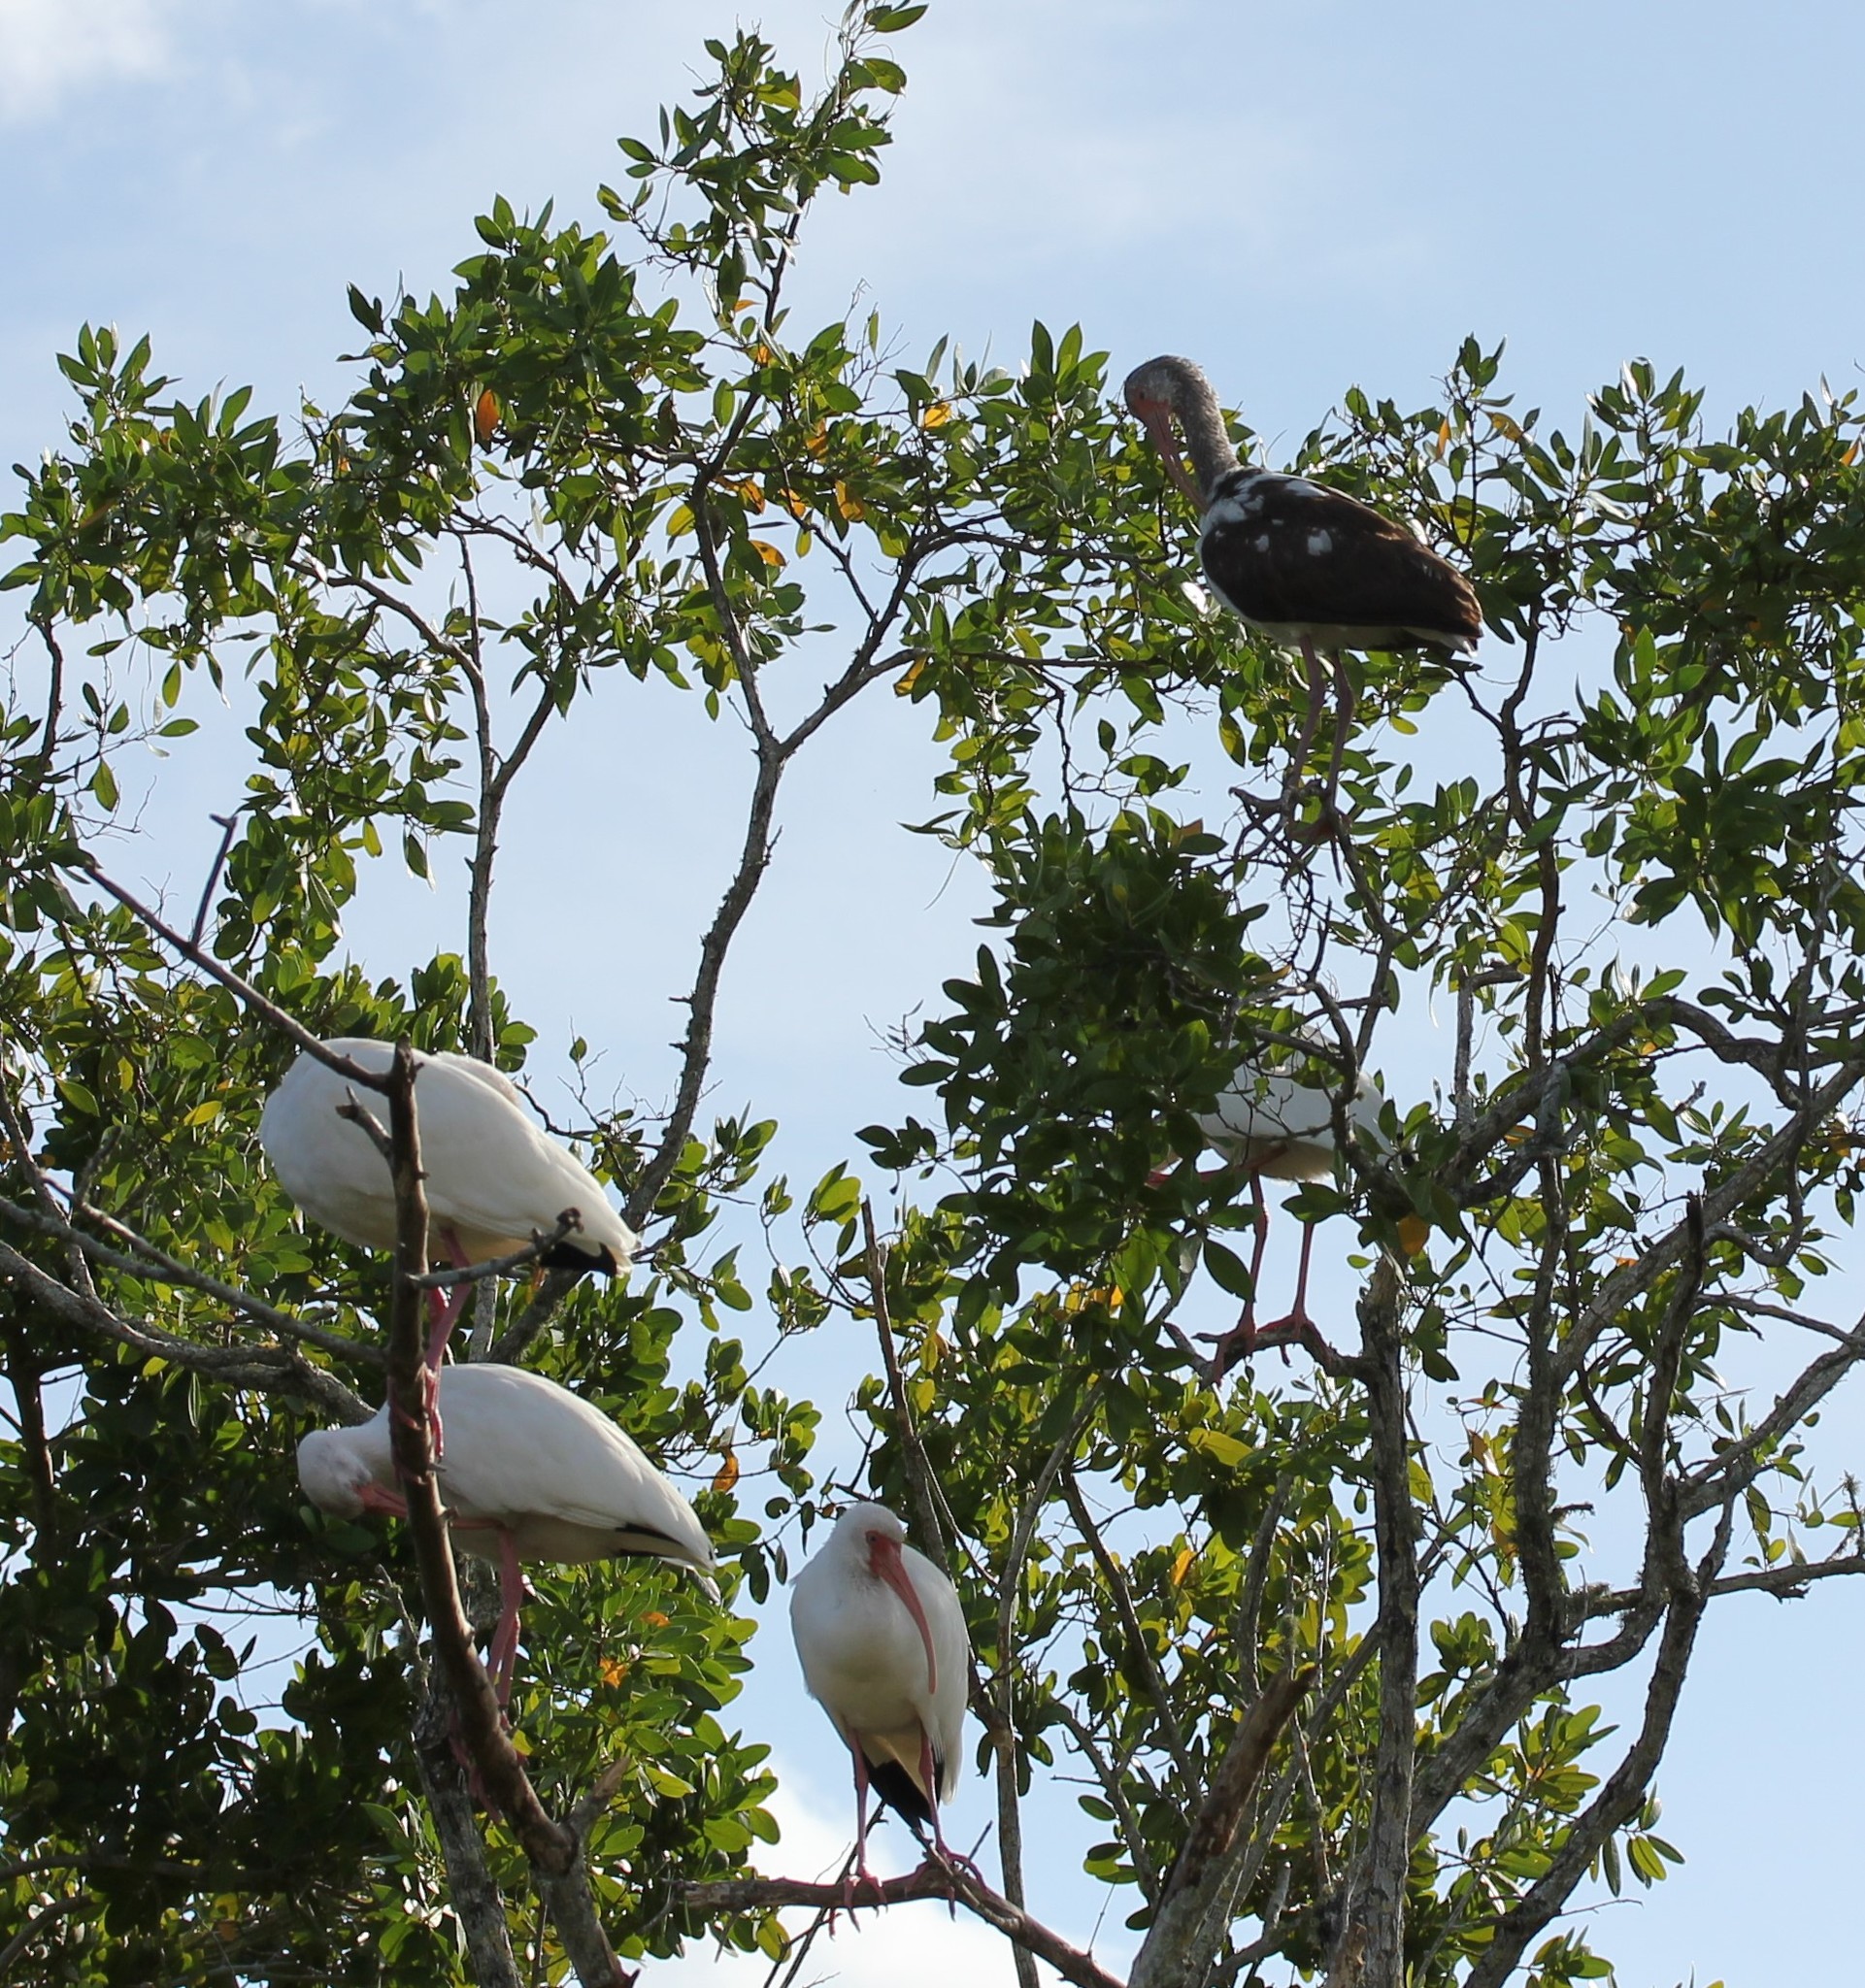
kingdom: Animalia
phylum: Chordata
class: Aves
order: Pelecaniformes
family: Threskiornithidae
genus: Eudocimus
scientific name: Eudocimus albus
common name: White ibis
